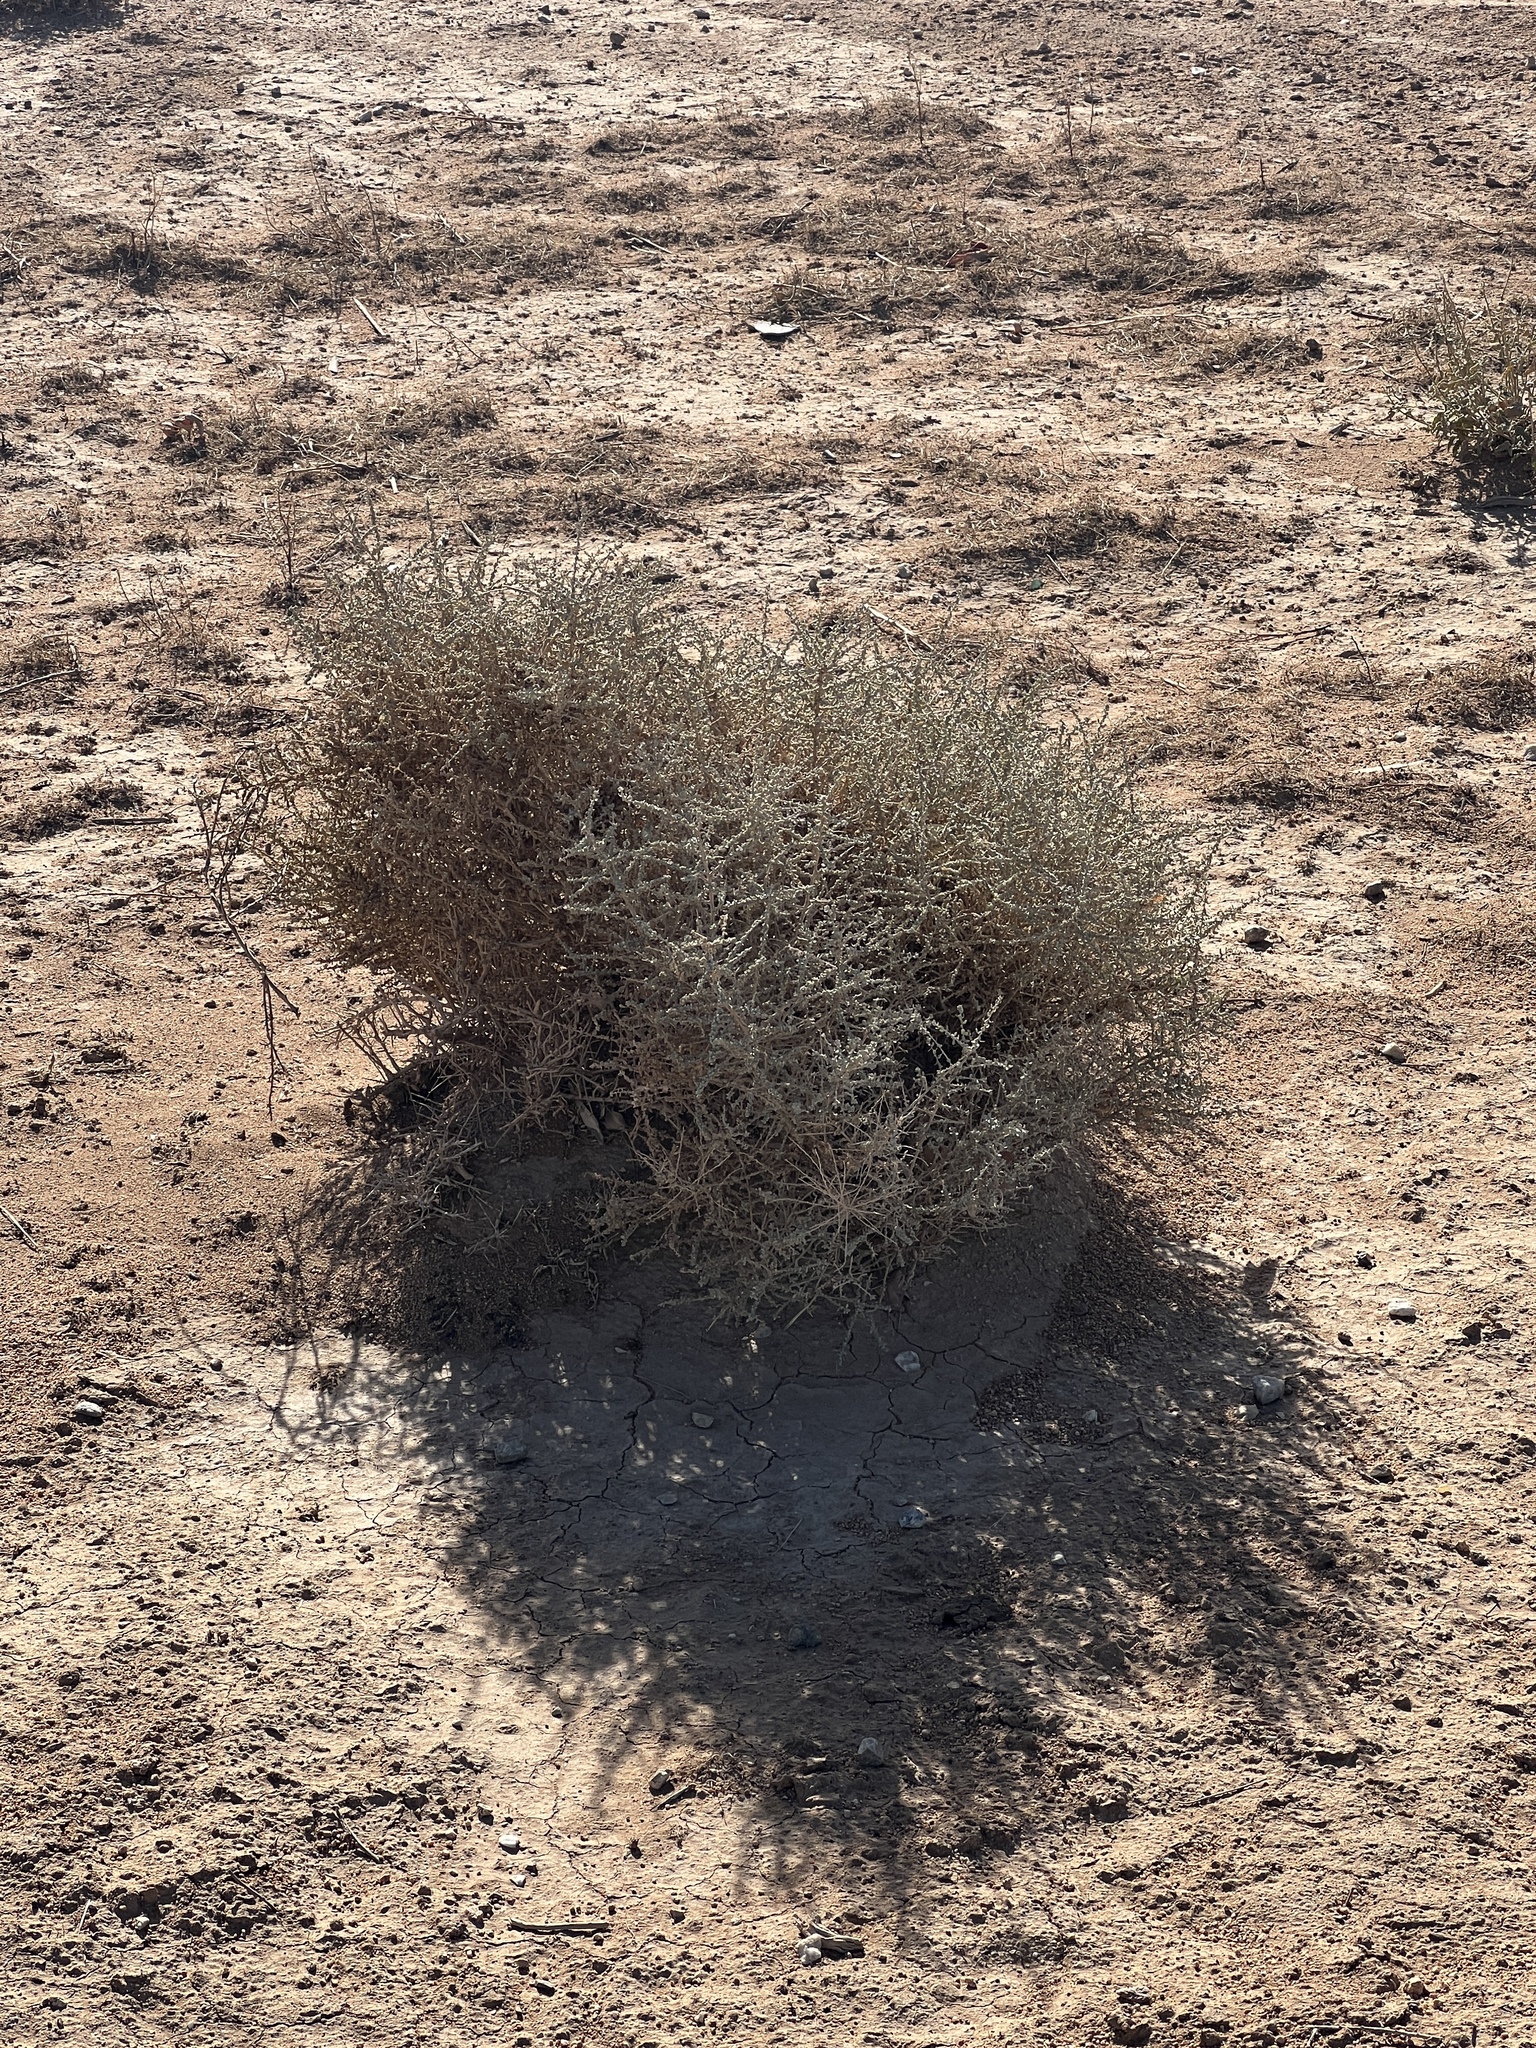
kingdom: Plantae
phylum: Tracheophyta
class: Magnoliopsida
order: Caryophyllales
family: Amaranthaceae
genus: Atriplex
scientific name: Atriplex polycarpa
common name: Desert saltbush
